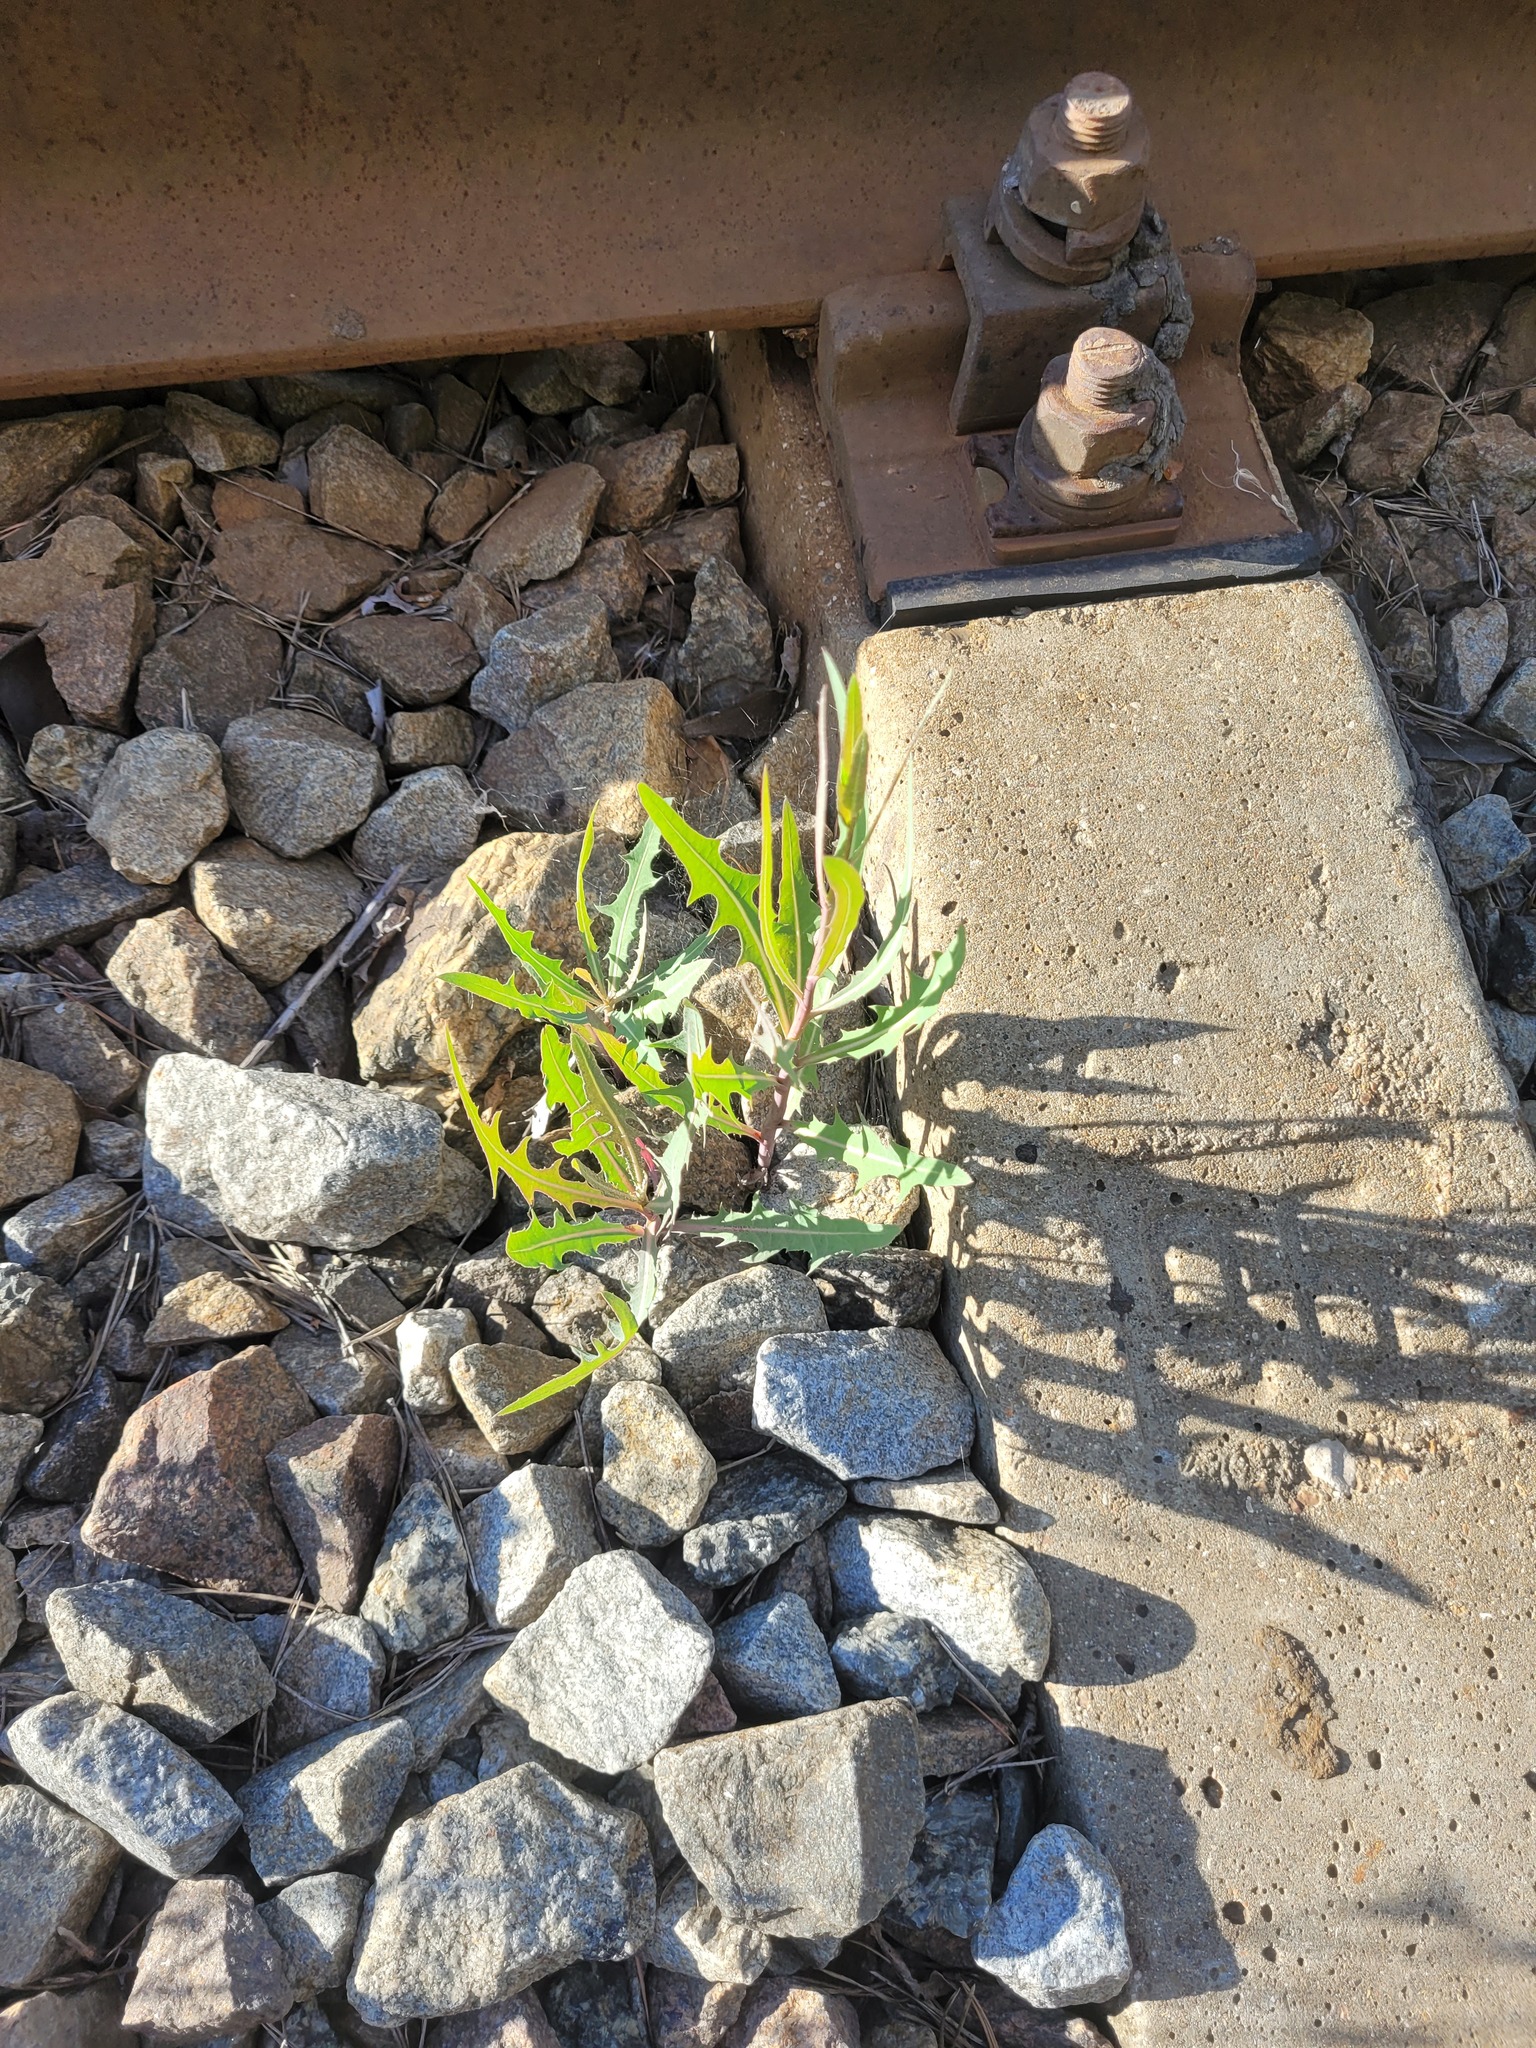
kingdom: Plantae
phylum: Tracheophyta
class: Magnoliopsida
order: Asterales
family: Asteraceae
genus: Lactuca
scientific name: Lactuca tatarica
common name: Blue lettuce
